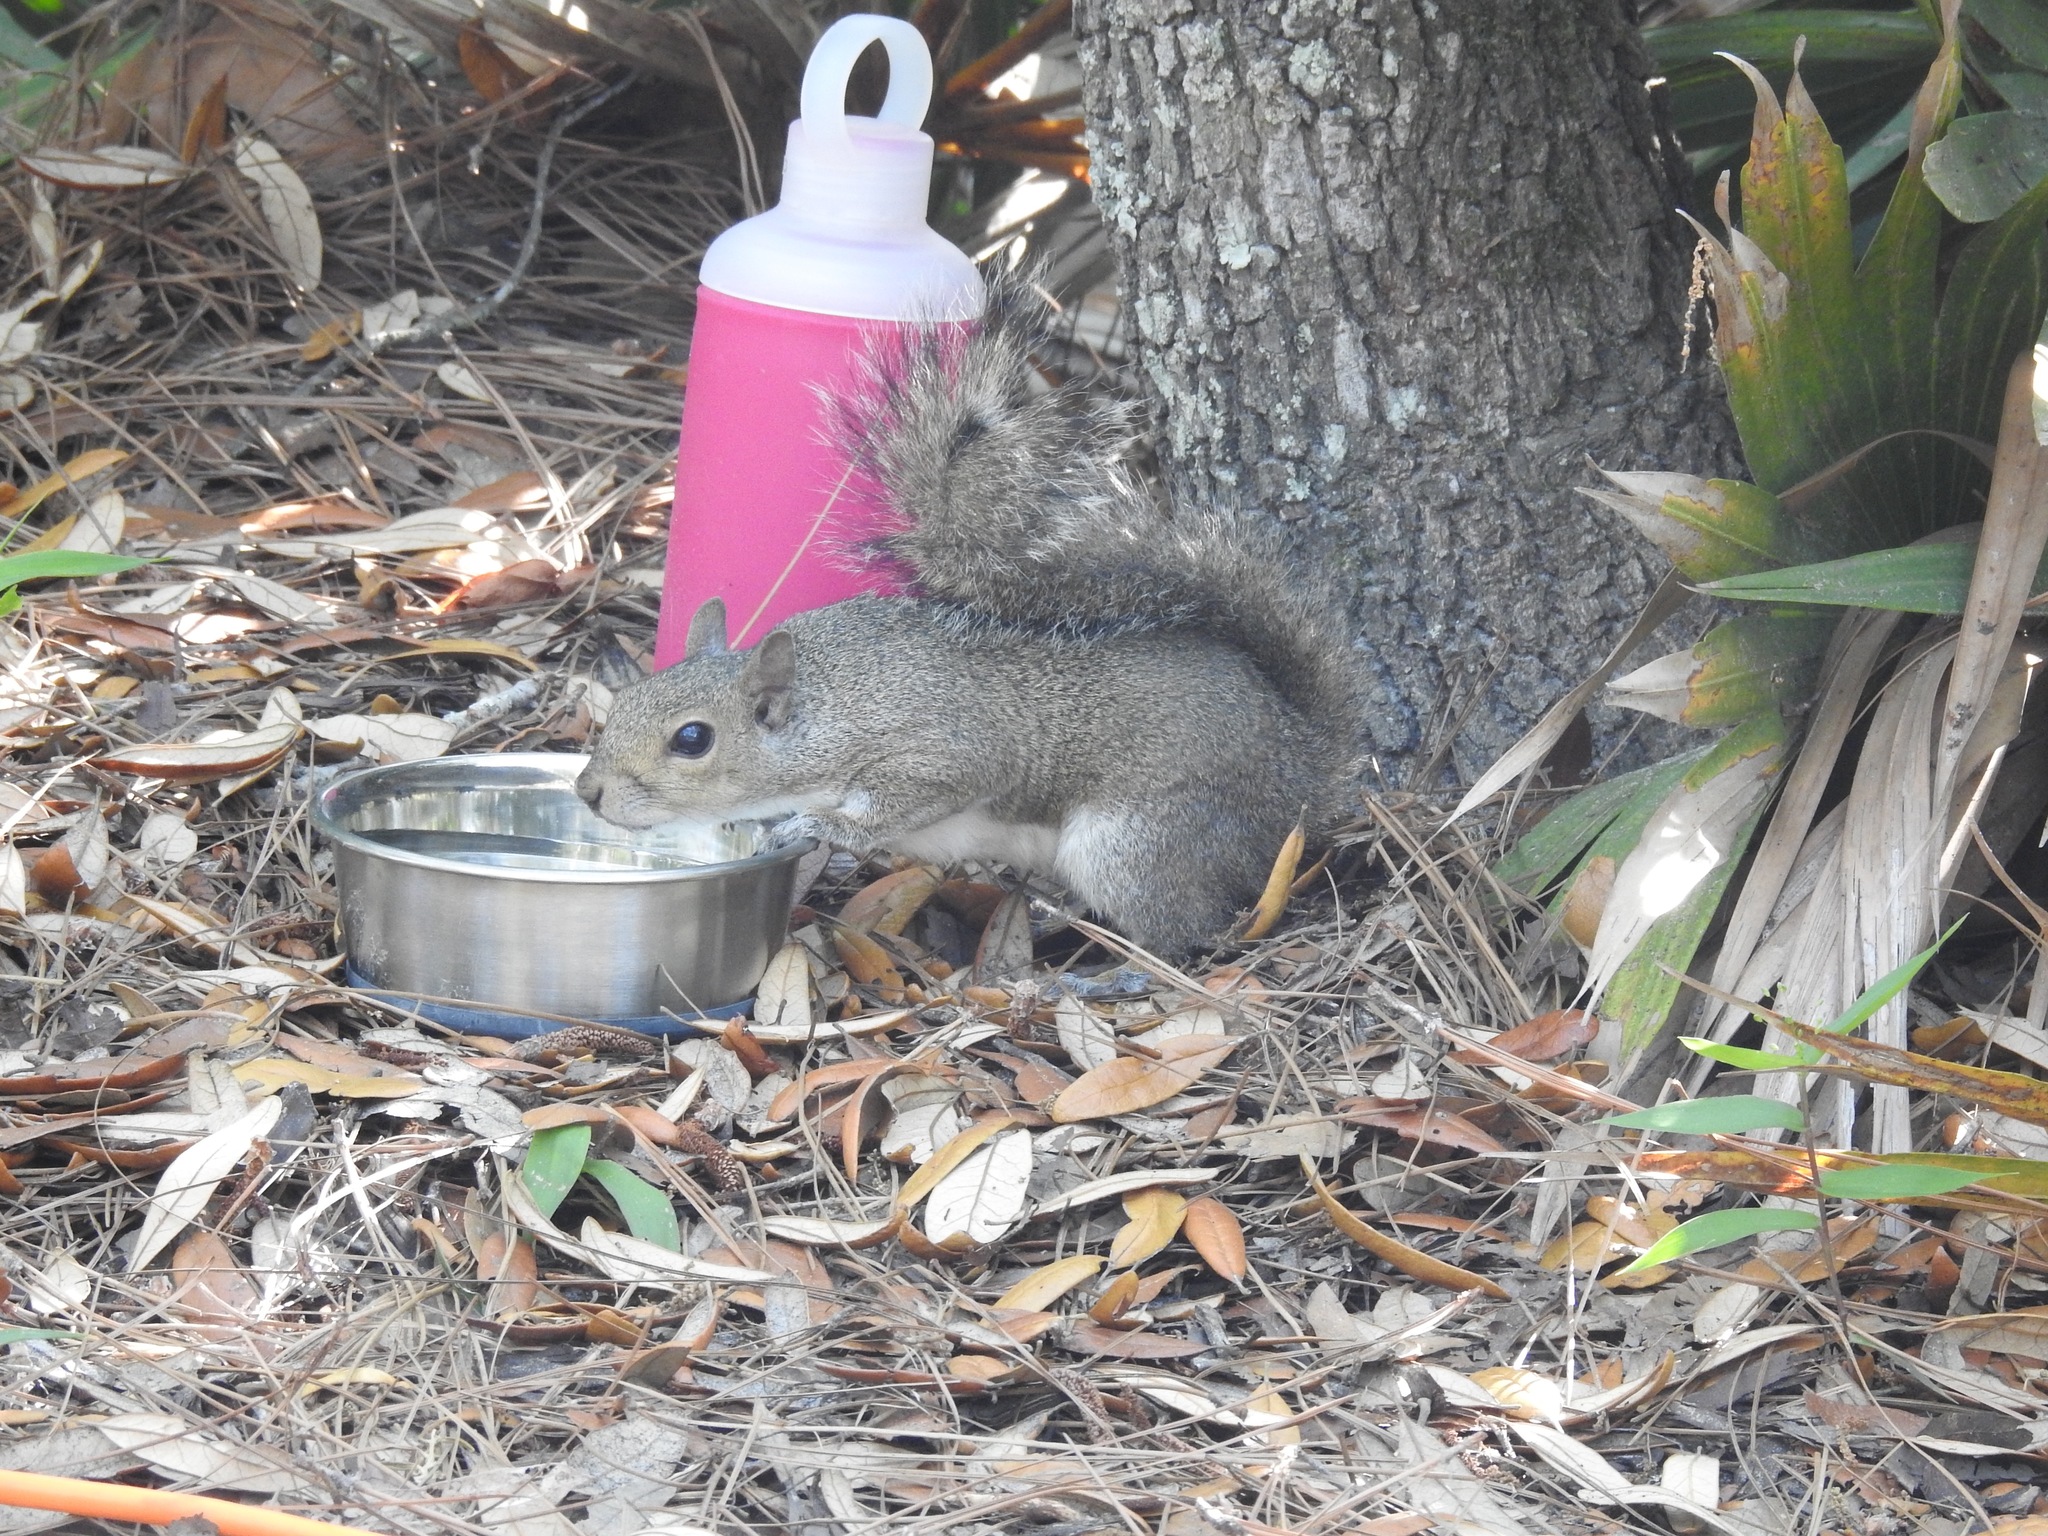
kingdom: Animalia
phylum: Chordata
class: Mammalia
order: Rodentia
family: Sciuridae
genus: Sciurus
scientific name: Sciurus carolinensis
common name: Eastern gray squirrel
